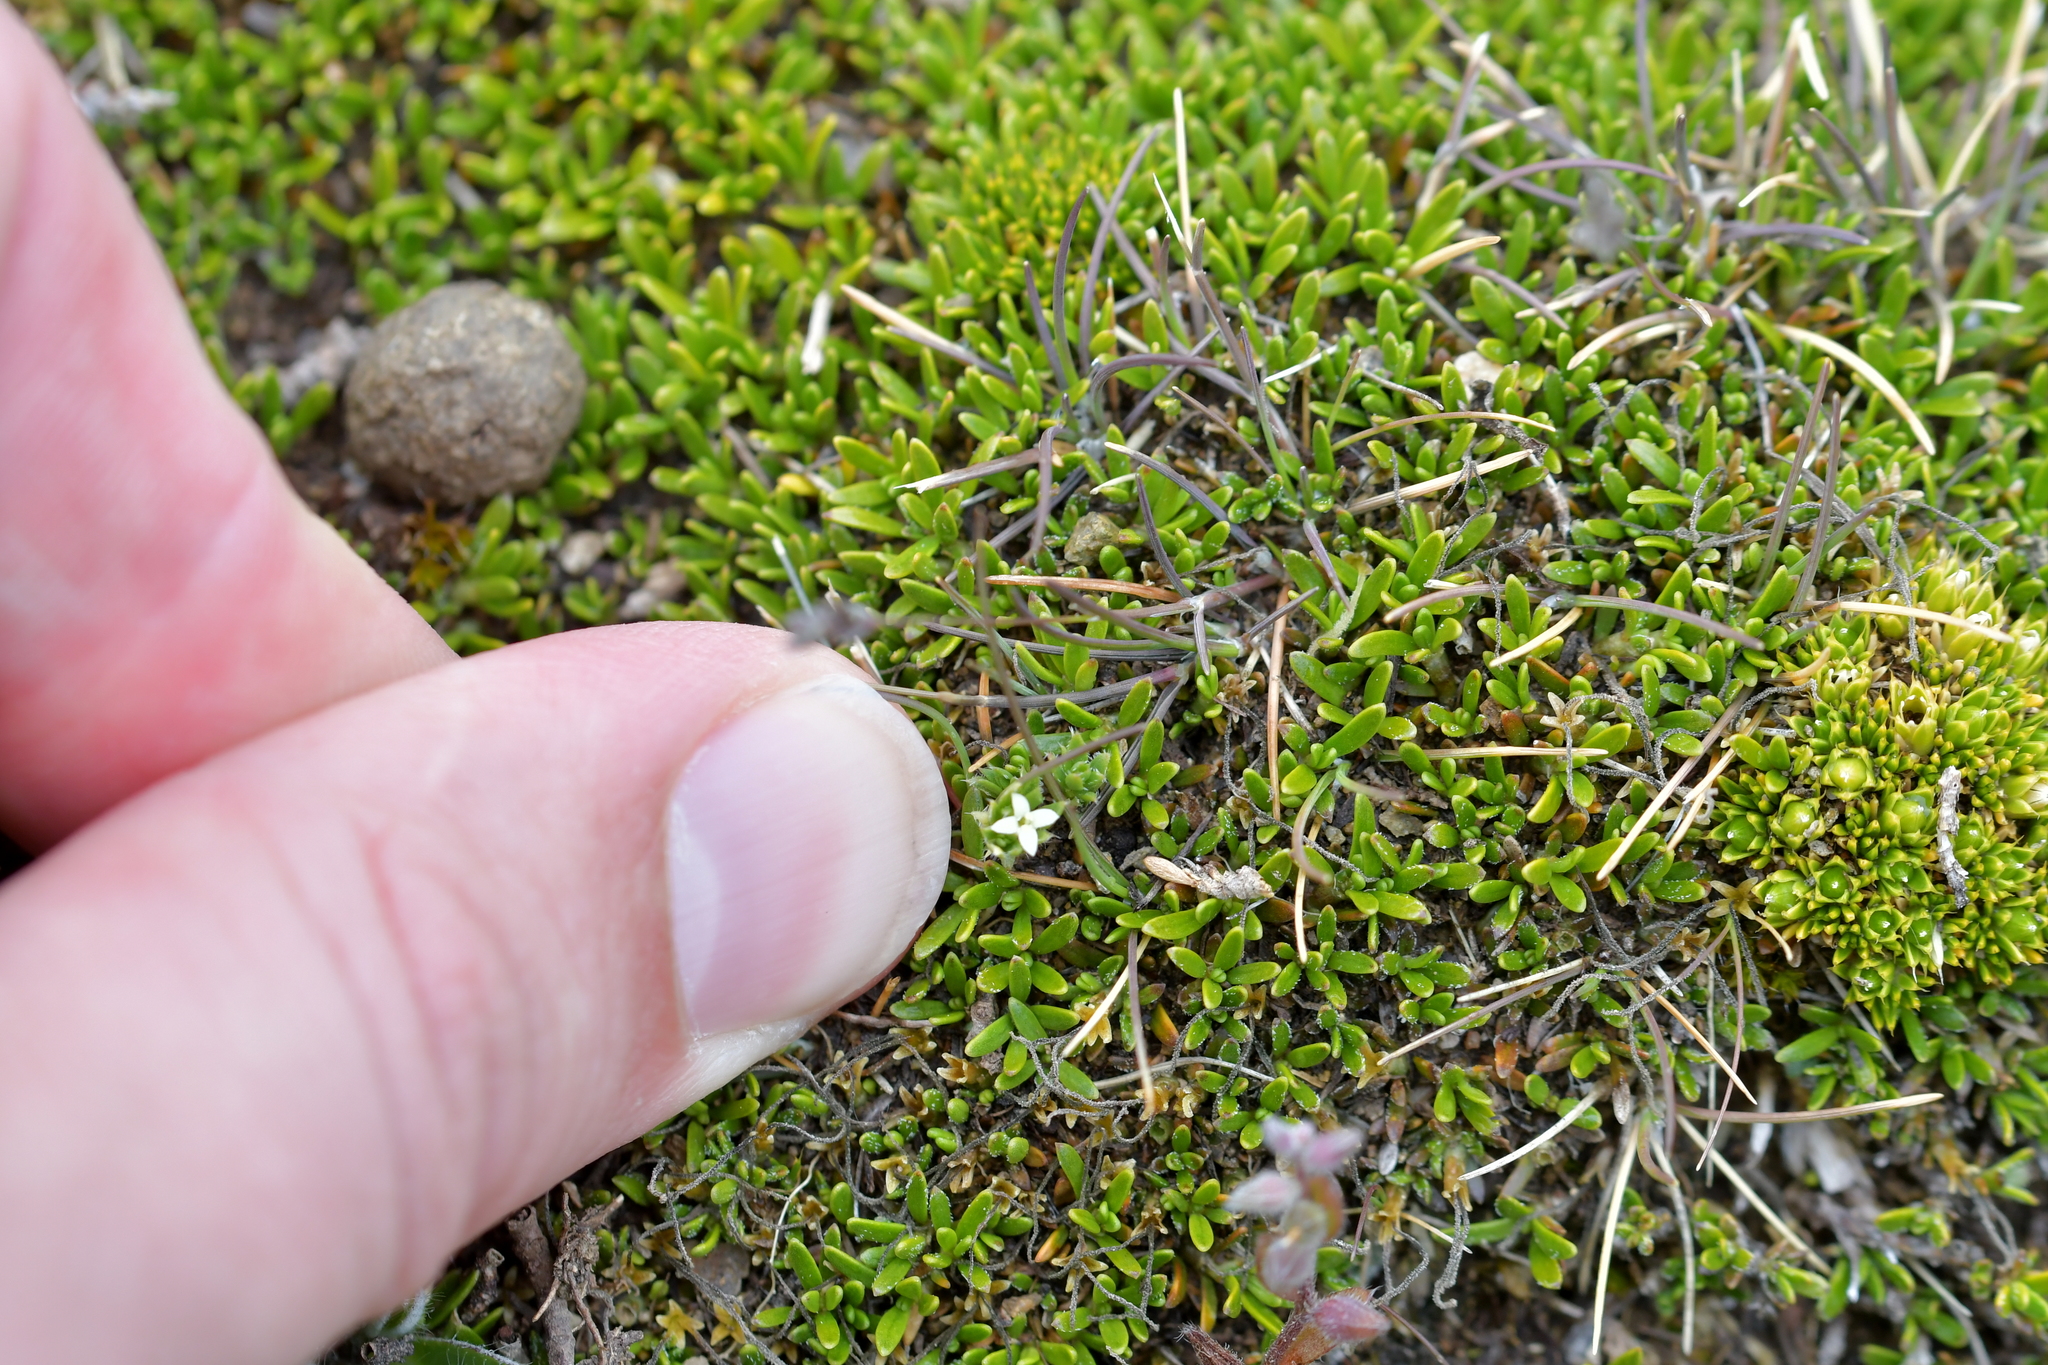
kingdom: Plantae
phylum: Tracheophyta
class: Magnoliopsida
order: Gentianales
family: Rubiaceae
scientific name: Rubiaceae
